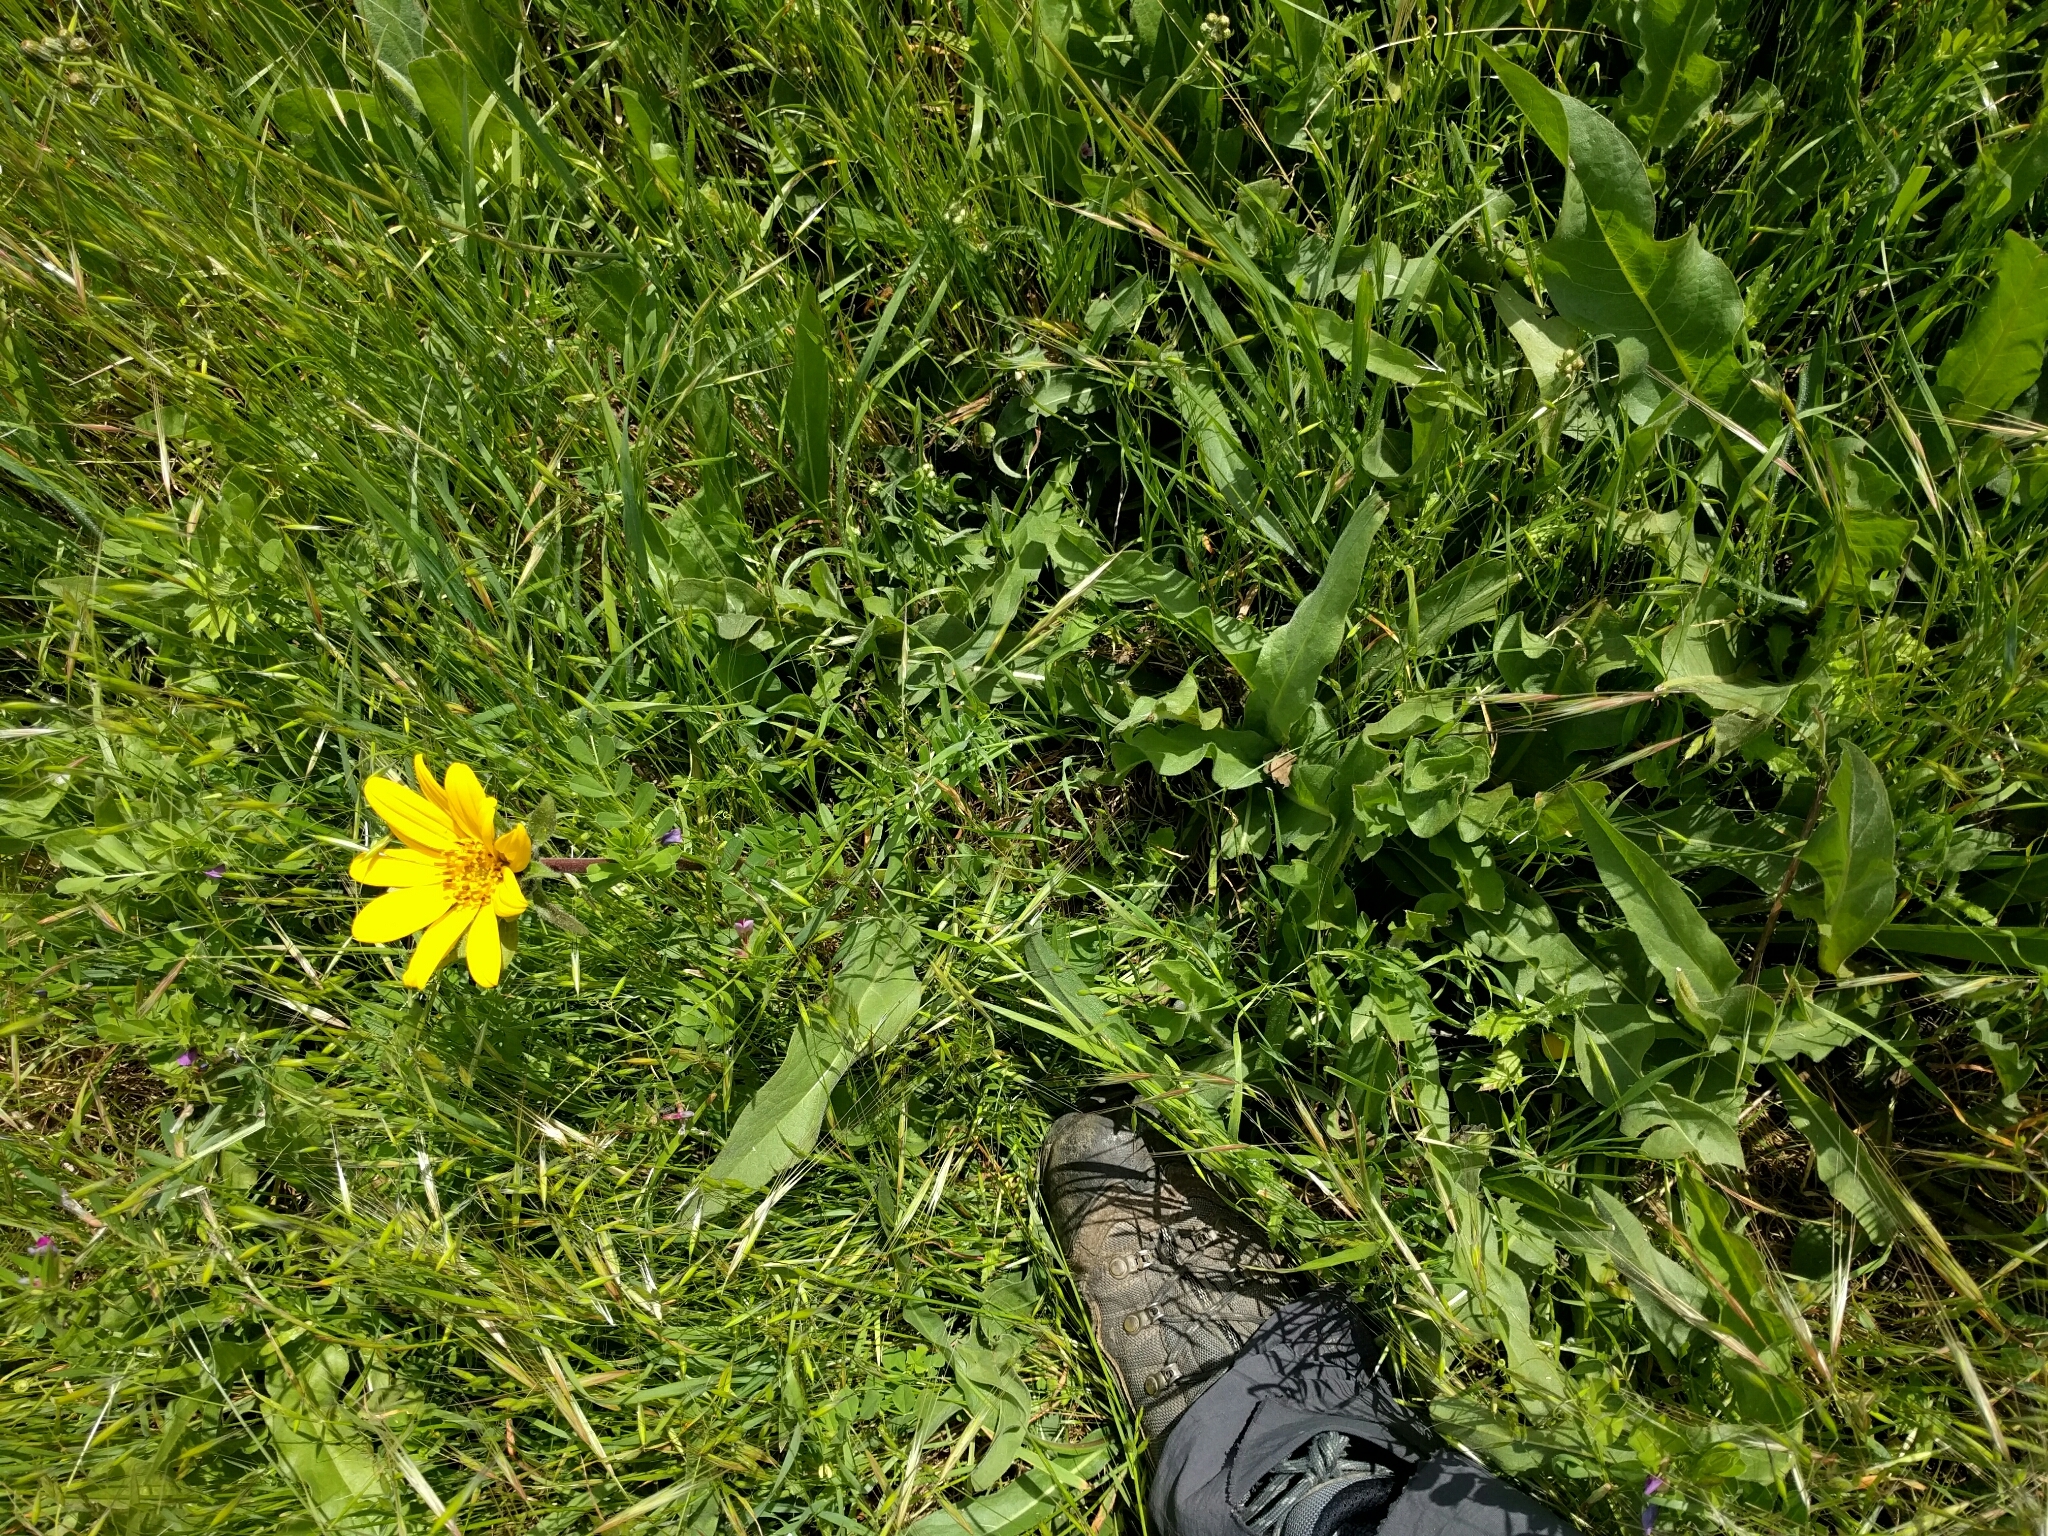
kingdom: Plantae
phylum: Tracheophyta
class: Magnoliopsida
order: Asterales
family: Asteraceae
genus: Wyethia
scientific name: Wyethia angustifolia
